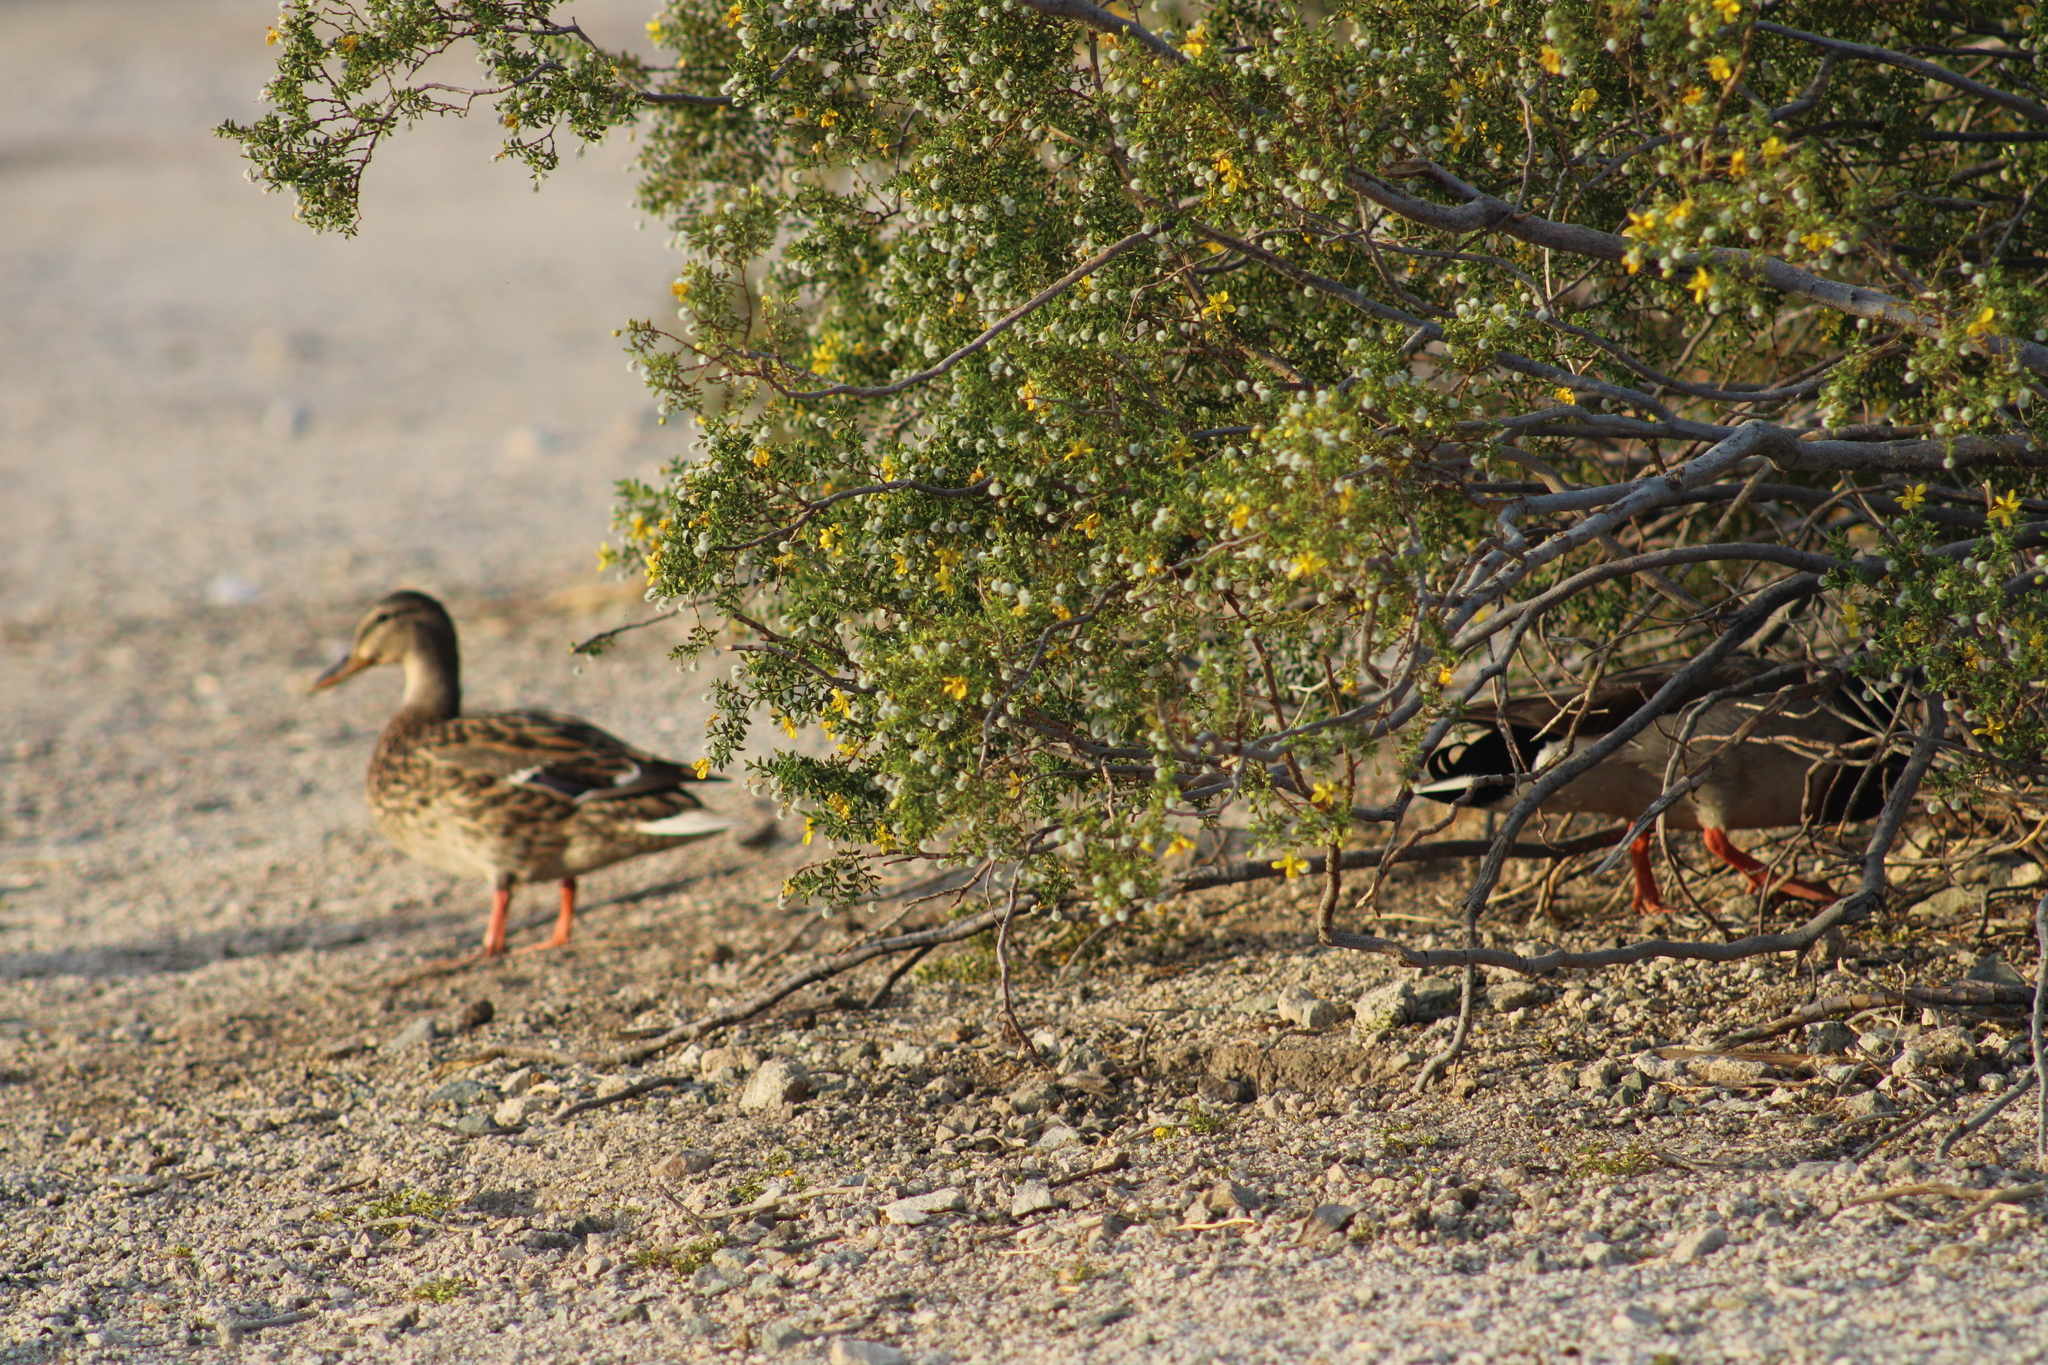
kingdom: Animalia
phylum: Chordata
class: Aves
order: Anseriformes
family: Anatidae
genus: Anas
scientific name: Anas platyrhynchos
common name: Mallard
